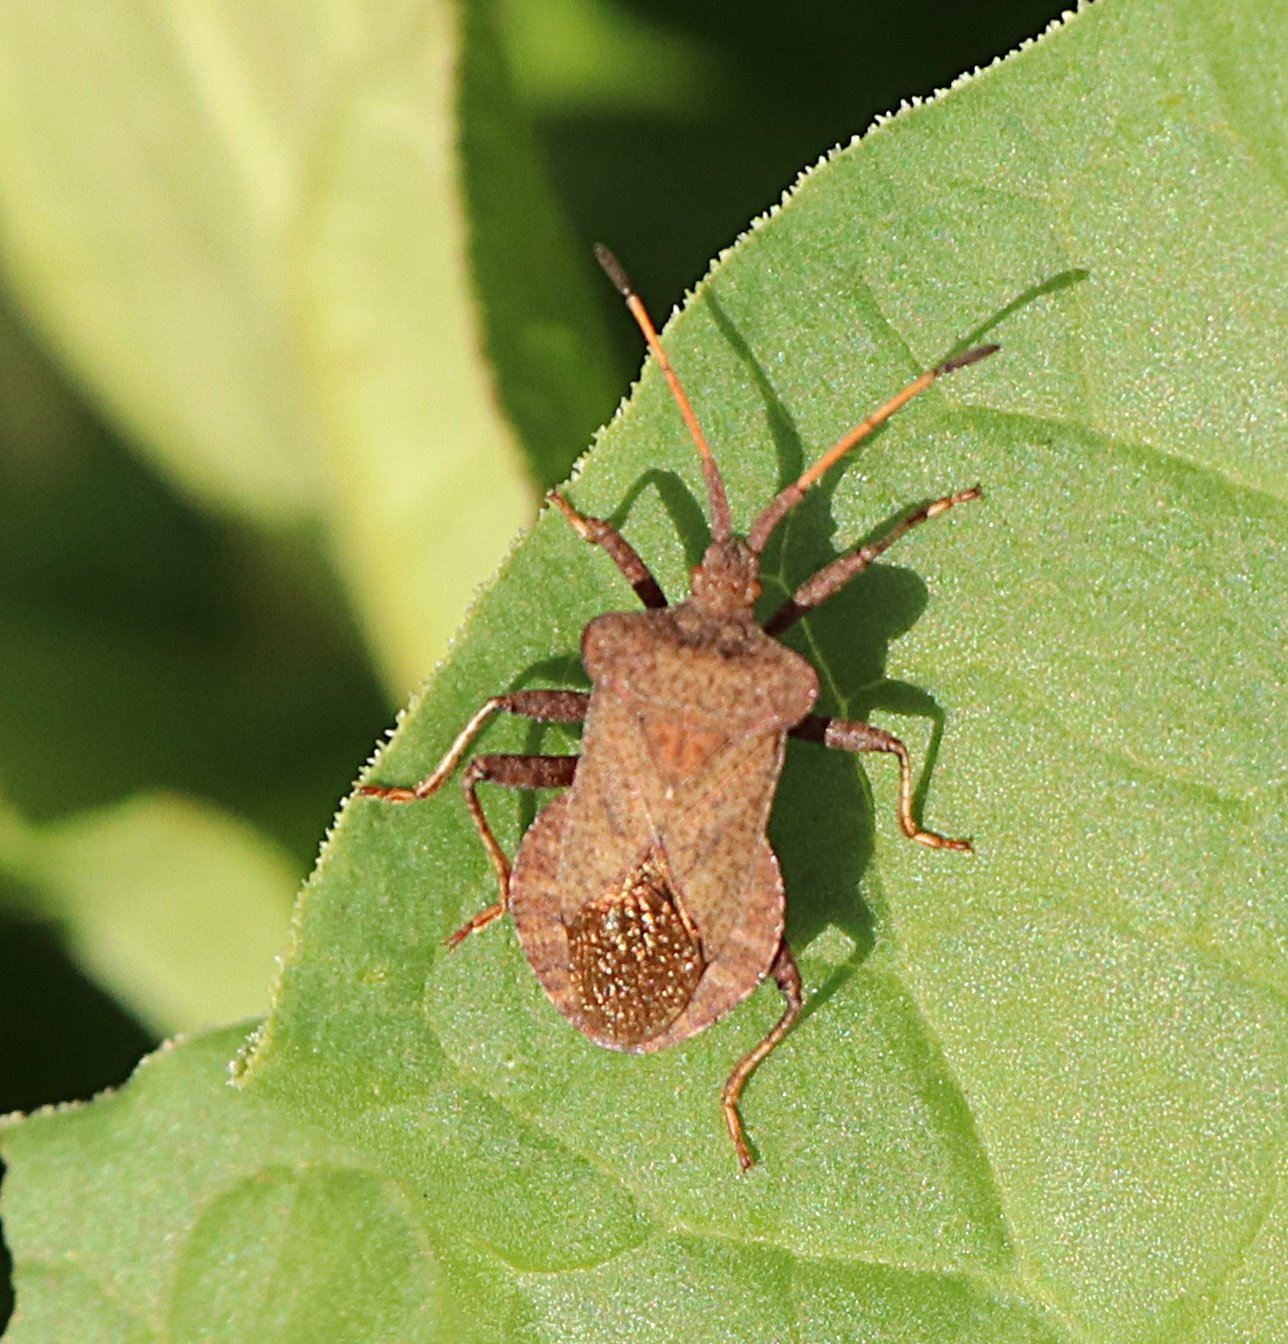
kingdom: Animalia
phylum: Arthropoda
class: Insecta
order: Hemiptera
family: Coreidae
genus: Coreus
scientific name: Coreus marginatus
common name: Dock bug
